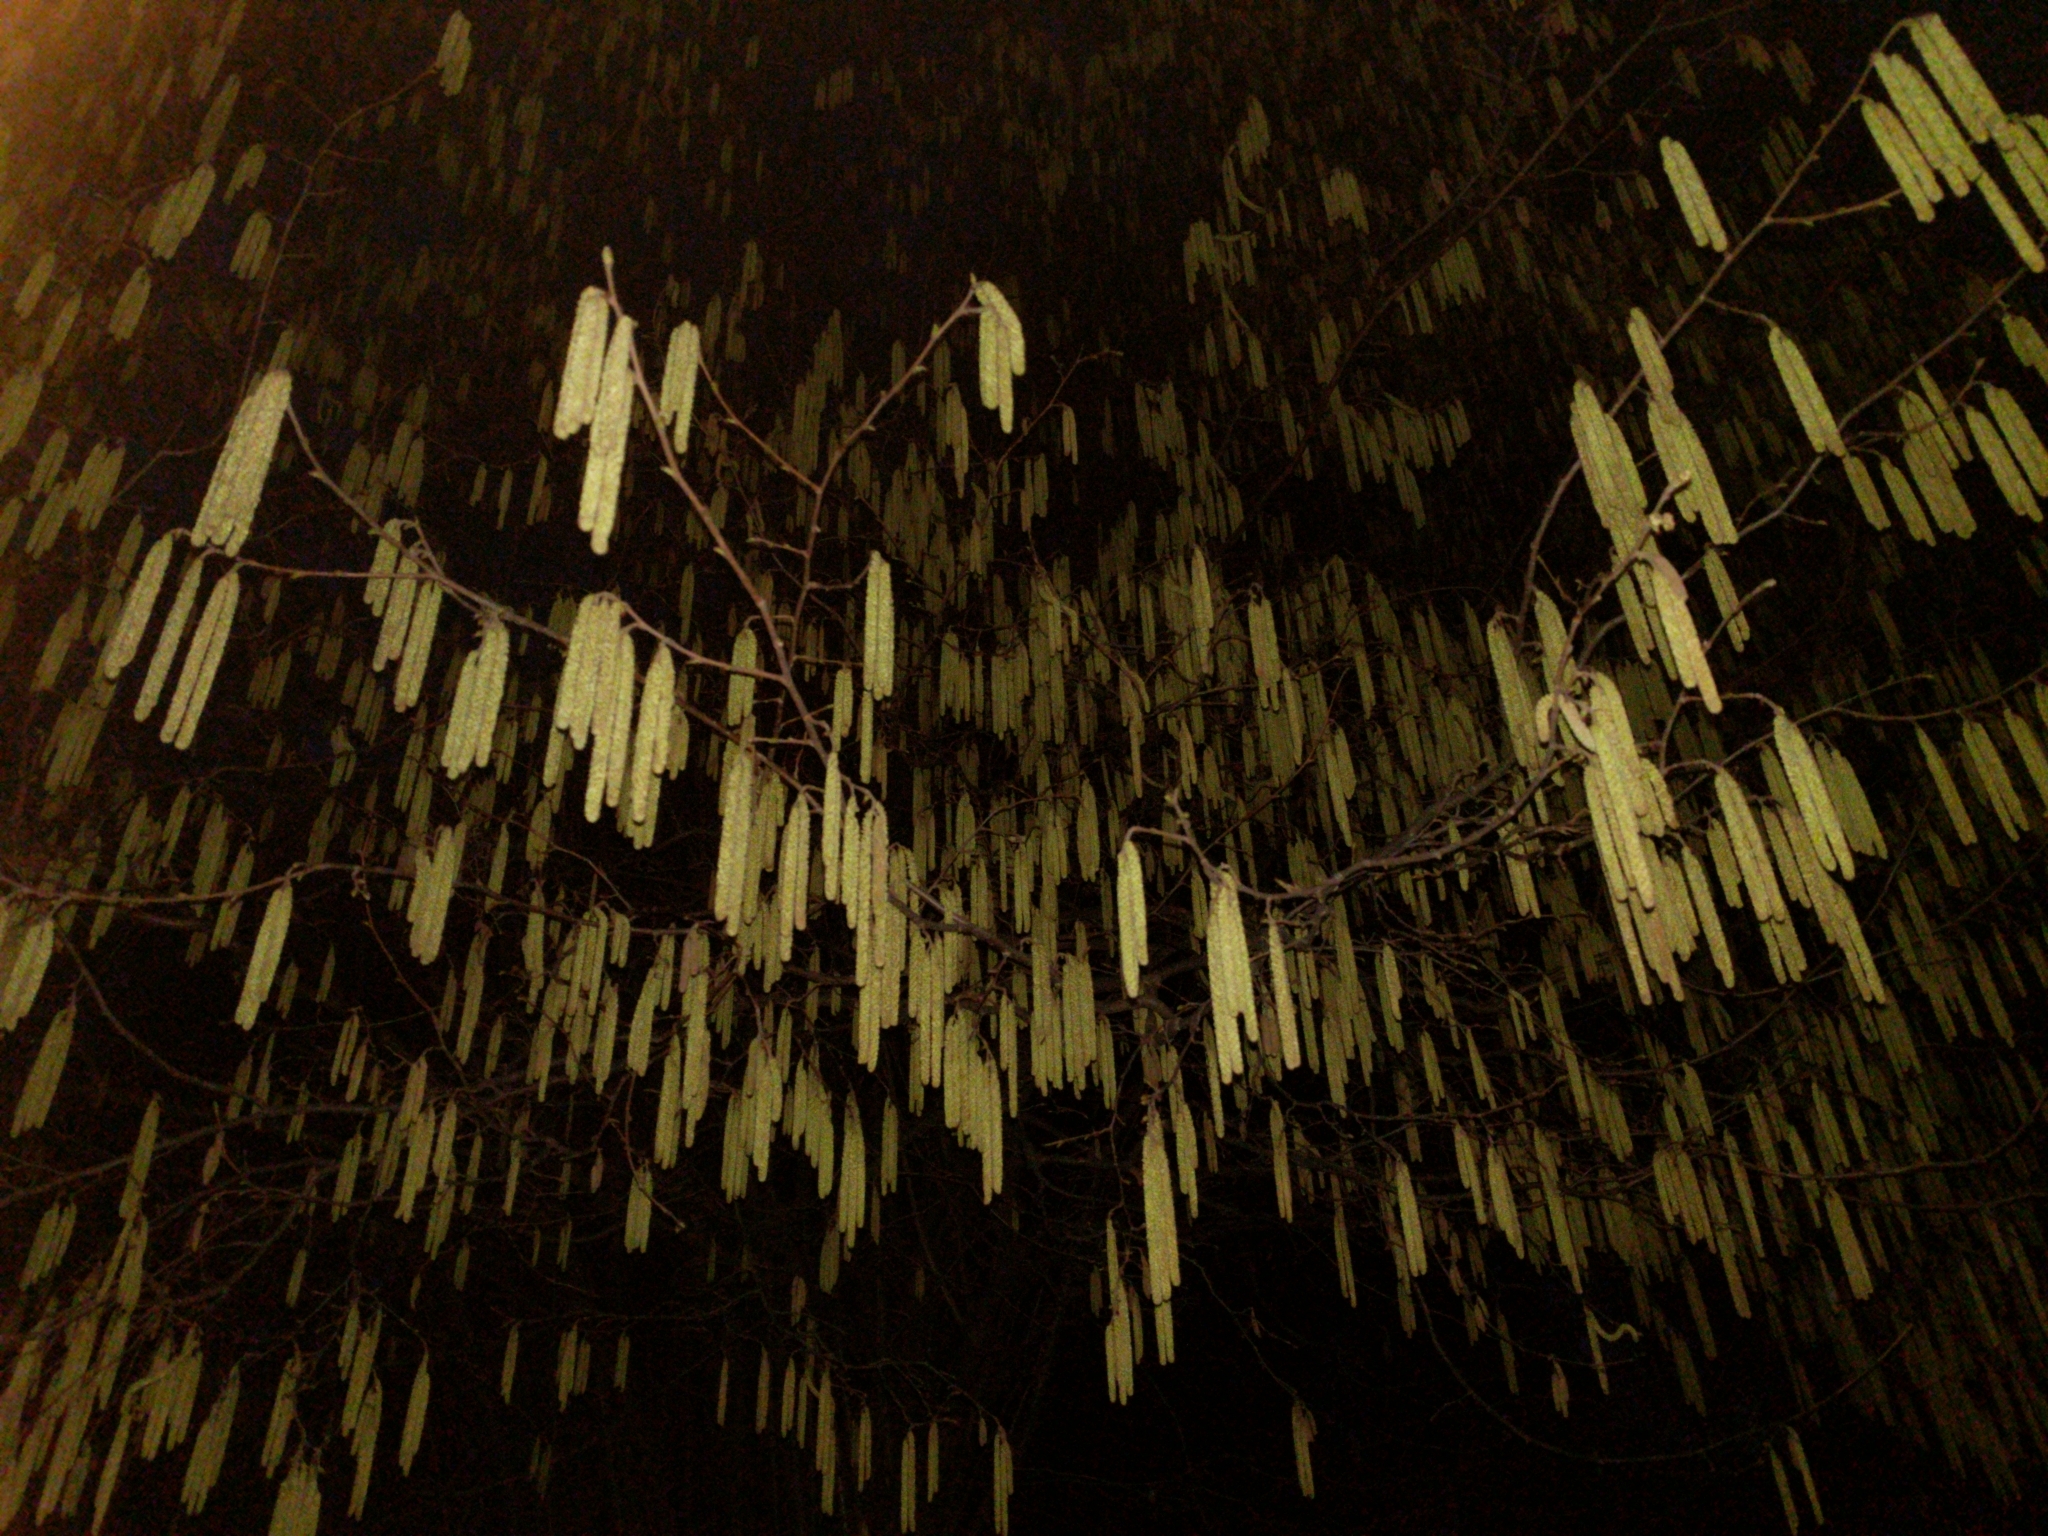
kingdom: Plantae
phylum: Tracheophyta
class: Magnoliopsida
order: Fagales
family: Betulaceae
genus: Corylus
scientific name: Corylus avellana
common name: European hazel
